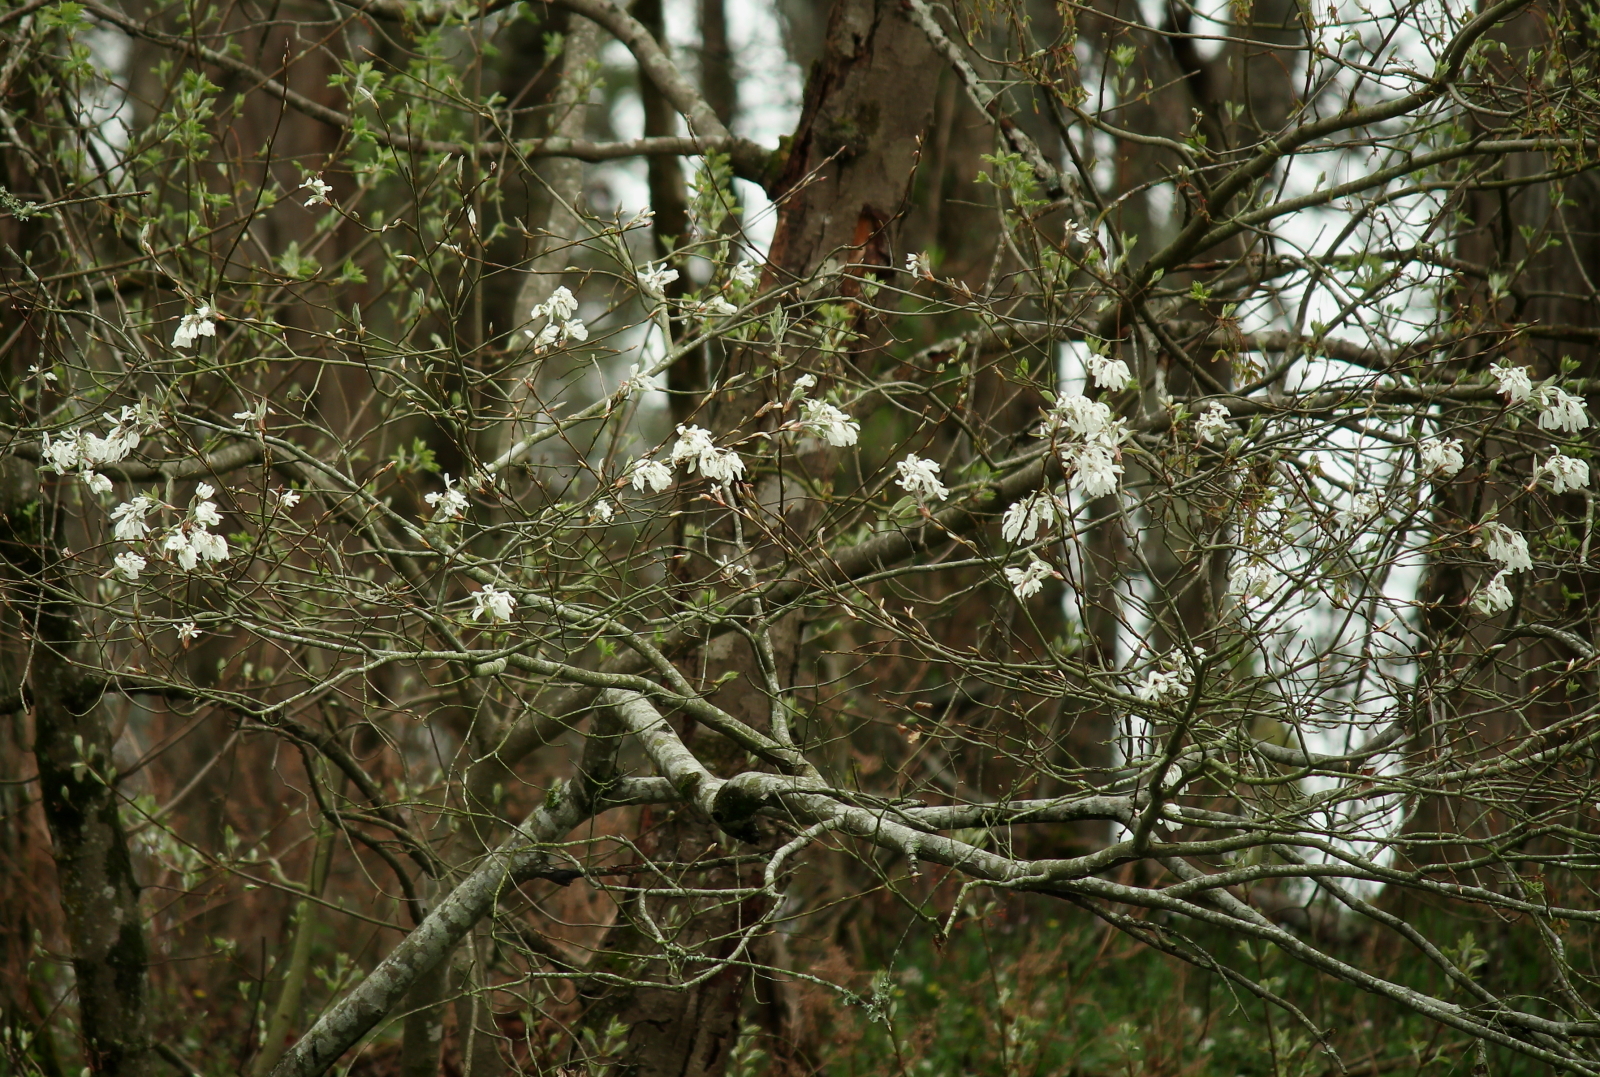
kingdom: Plantae
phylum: Tracheophyta
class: Magnoliopsida
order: Rosales
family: Rosaceae
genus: Amelanchier
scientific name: Amelanchier arborea
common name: Downy serviceberry
